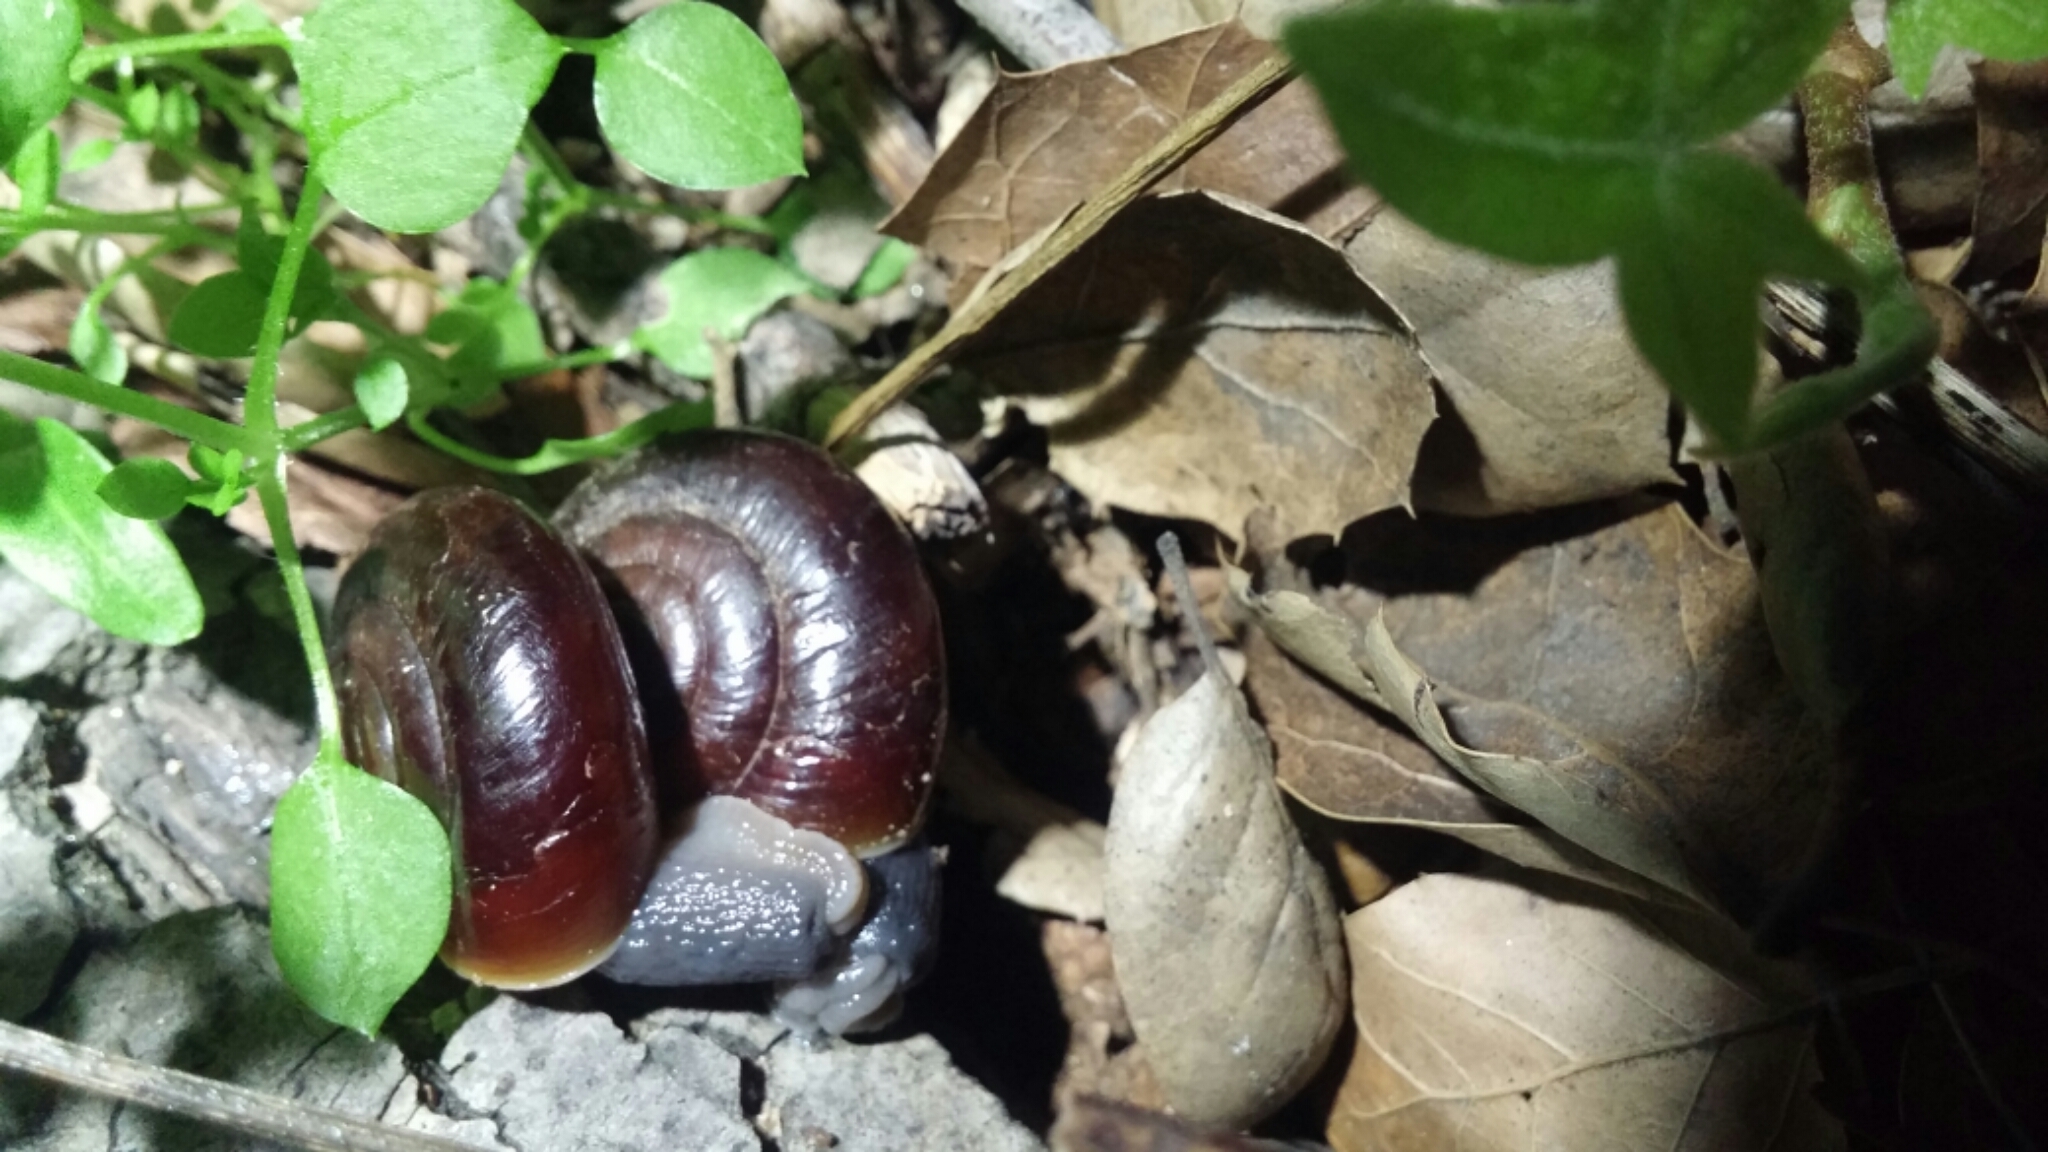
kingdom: Animalia
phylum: Mollusca
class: Gastropoda
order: Stylommatophora
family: Megomphicidae
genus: Glyptostoma
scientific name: Glyptostoma gabrielense
